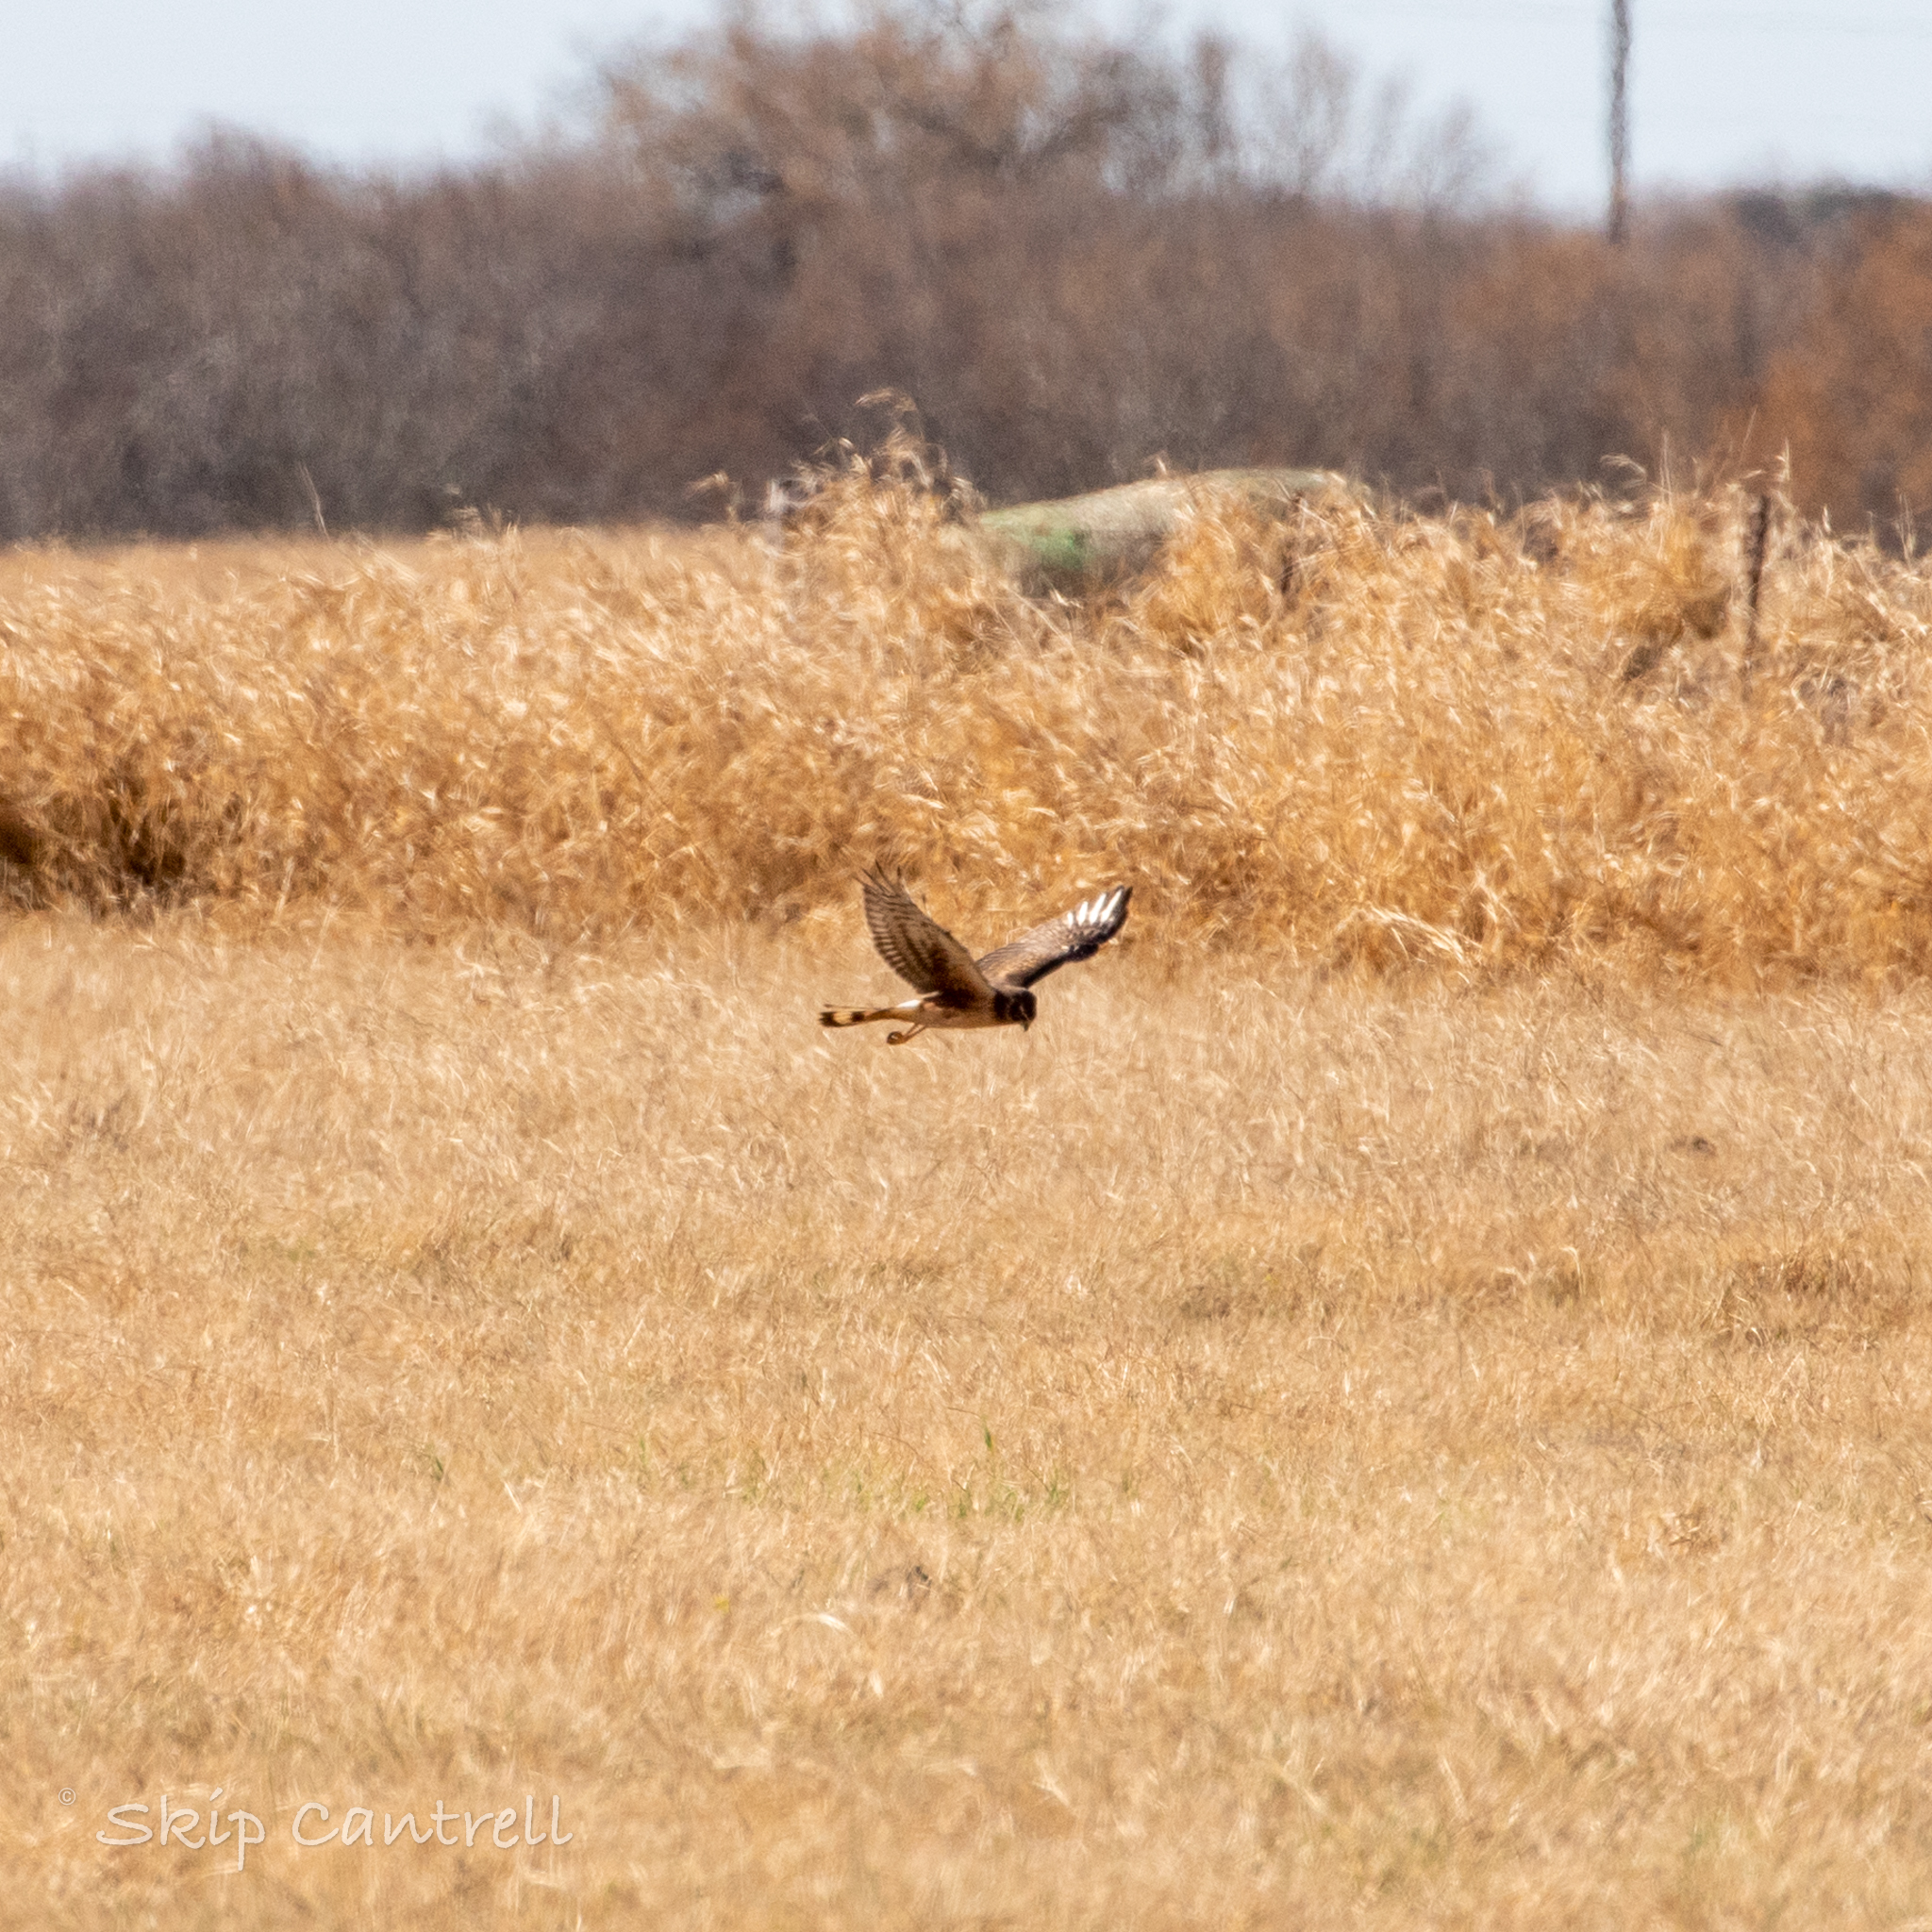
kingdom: Animalia
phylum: Chordata
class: Aves
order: Accipitriformes
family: Accipitridae
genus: Circus
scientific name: Circus cyaneus
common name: Hen harrier
